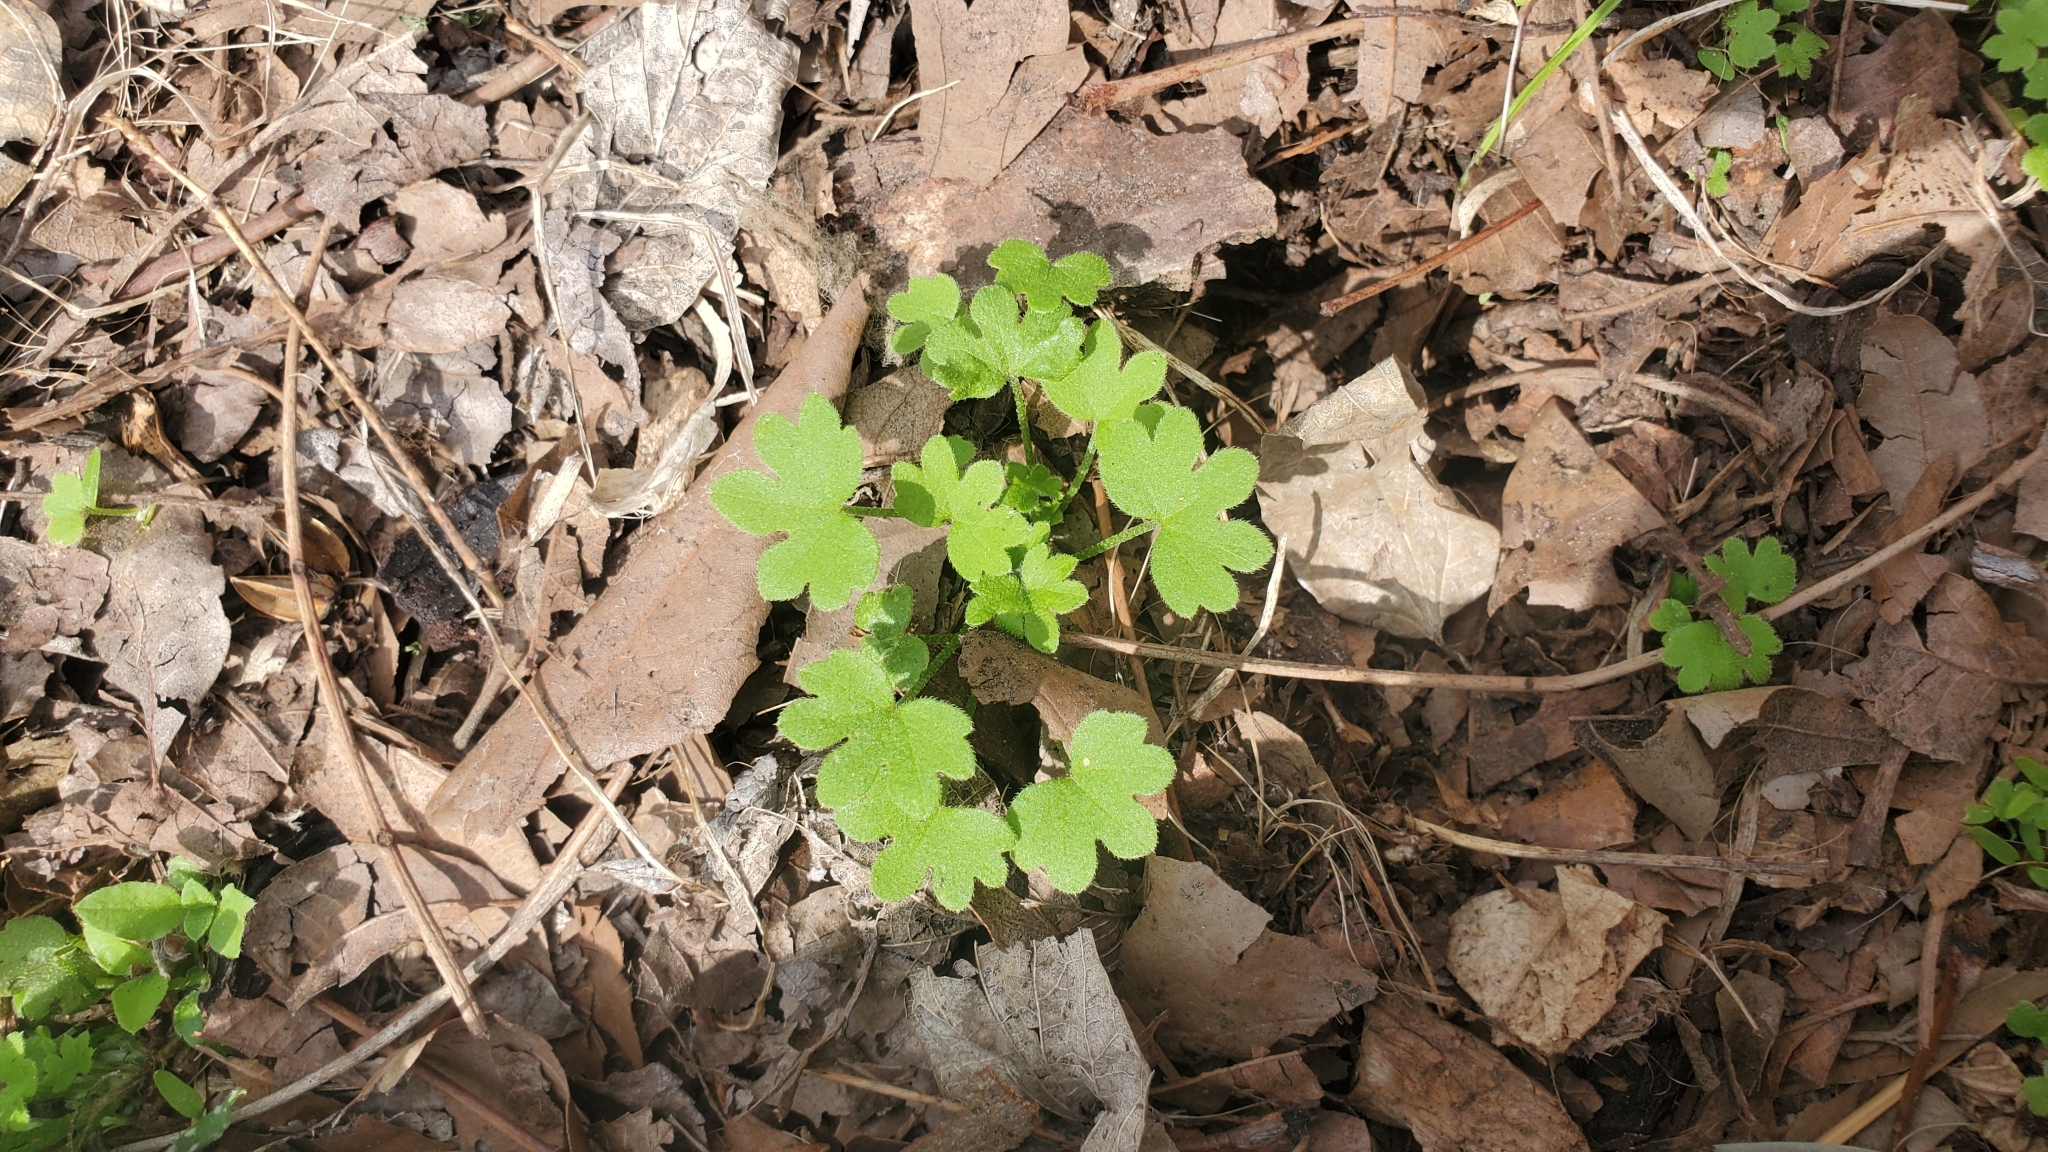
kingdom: Plantae
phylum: Tracheophyta
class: Magnoliopsida
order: Apiales
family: Apiaceae
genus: Bowlesia
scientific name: Bowlesia incana
